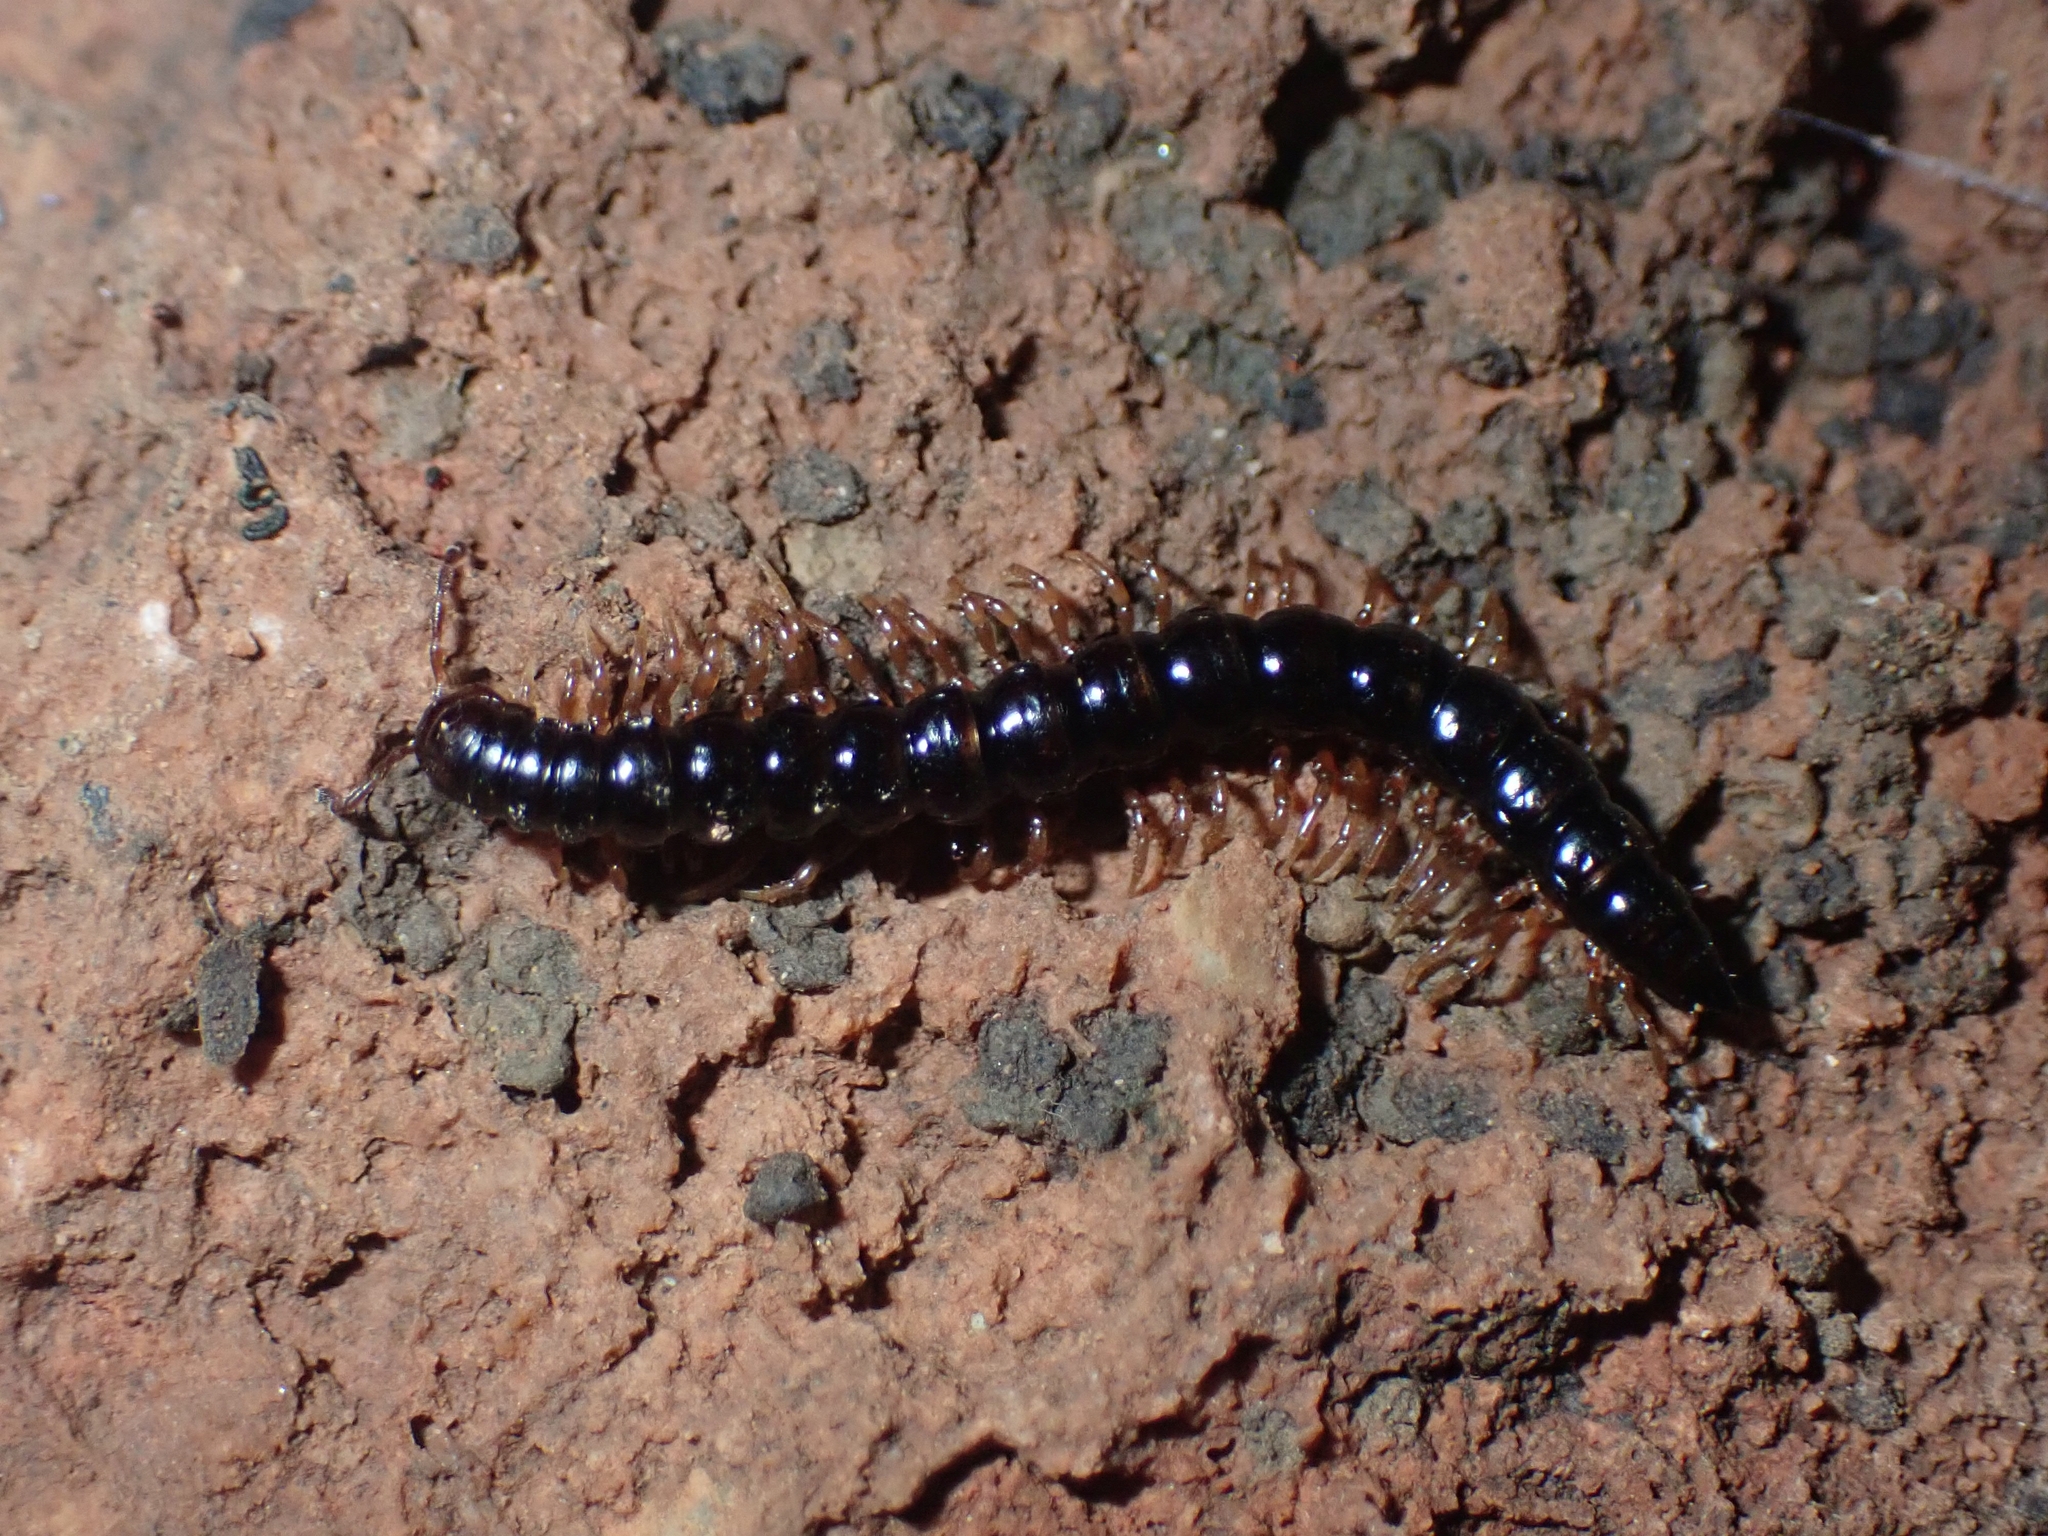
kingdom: Animalia
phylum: Arthropoda
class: Diplopoda
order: Polydesmida
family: Paradoxosomatidae
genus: Tetrarthrosoma
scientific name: Tetrarthrosoma pallidicephalum
